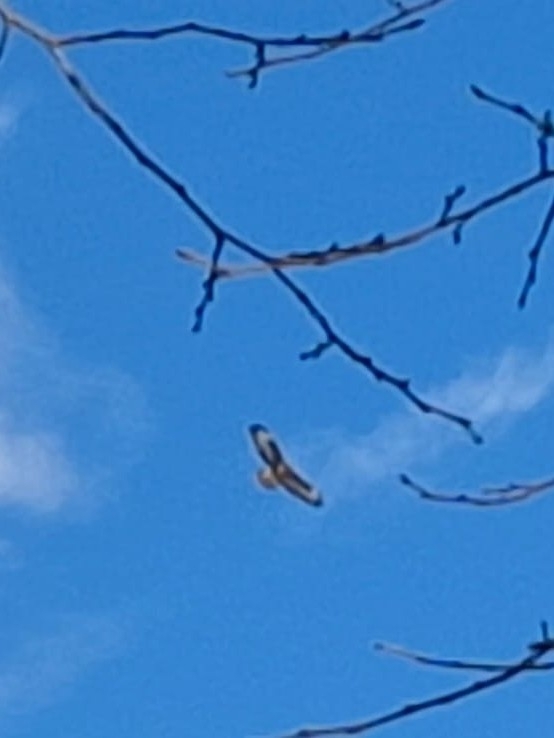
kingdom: Animalia
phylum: Chordata
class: Aves
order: Accipitriformes
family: Accipitridae
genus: Buteo
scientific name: Buteo buteo
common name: Common buzzard
